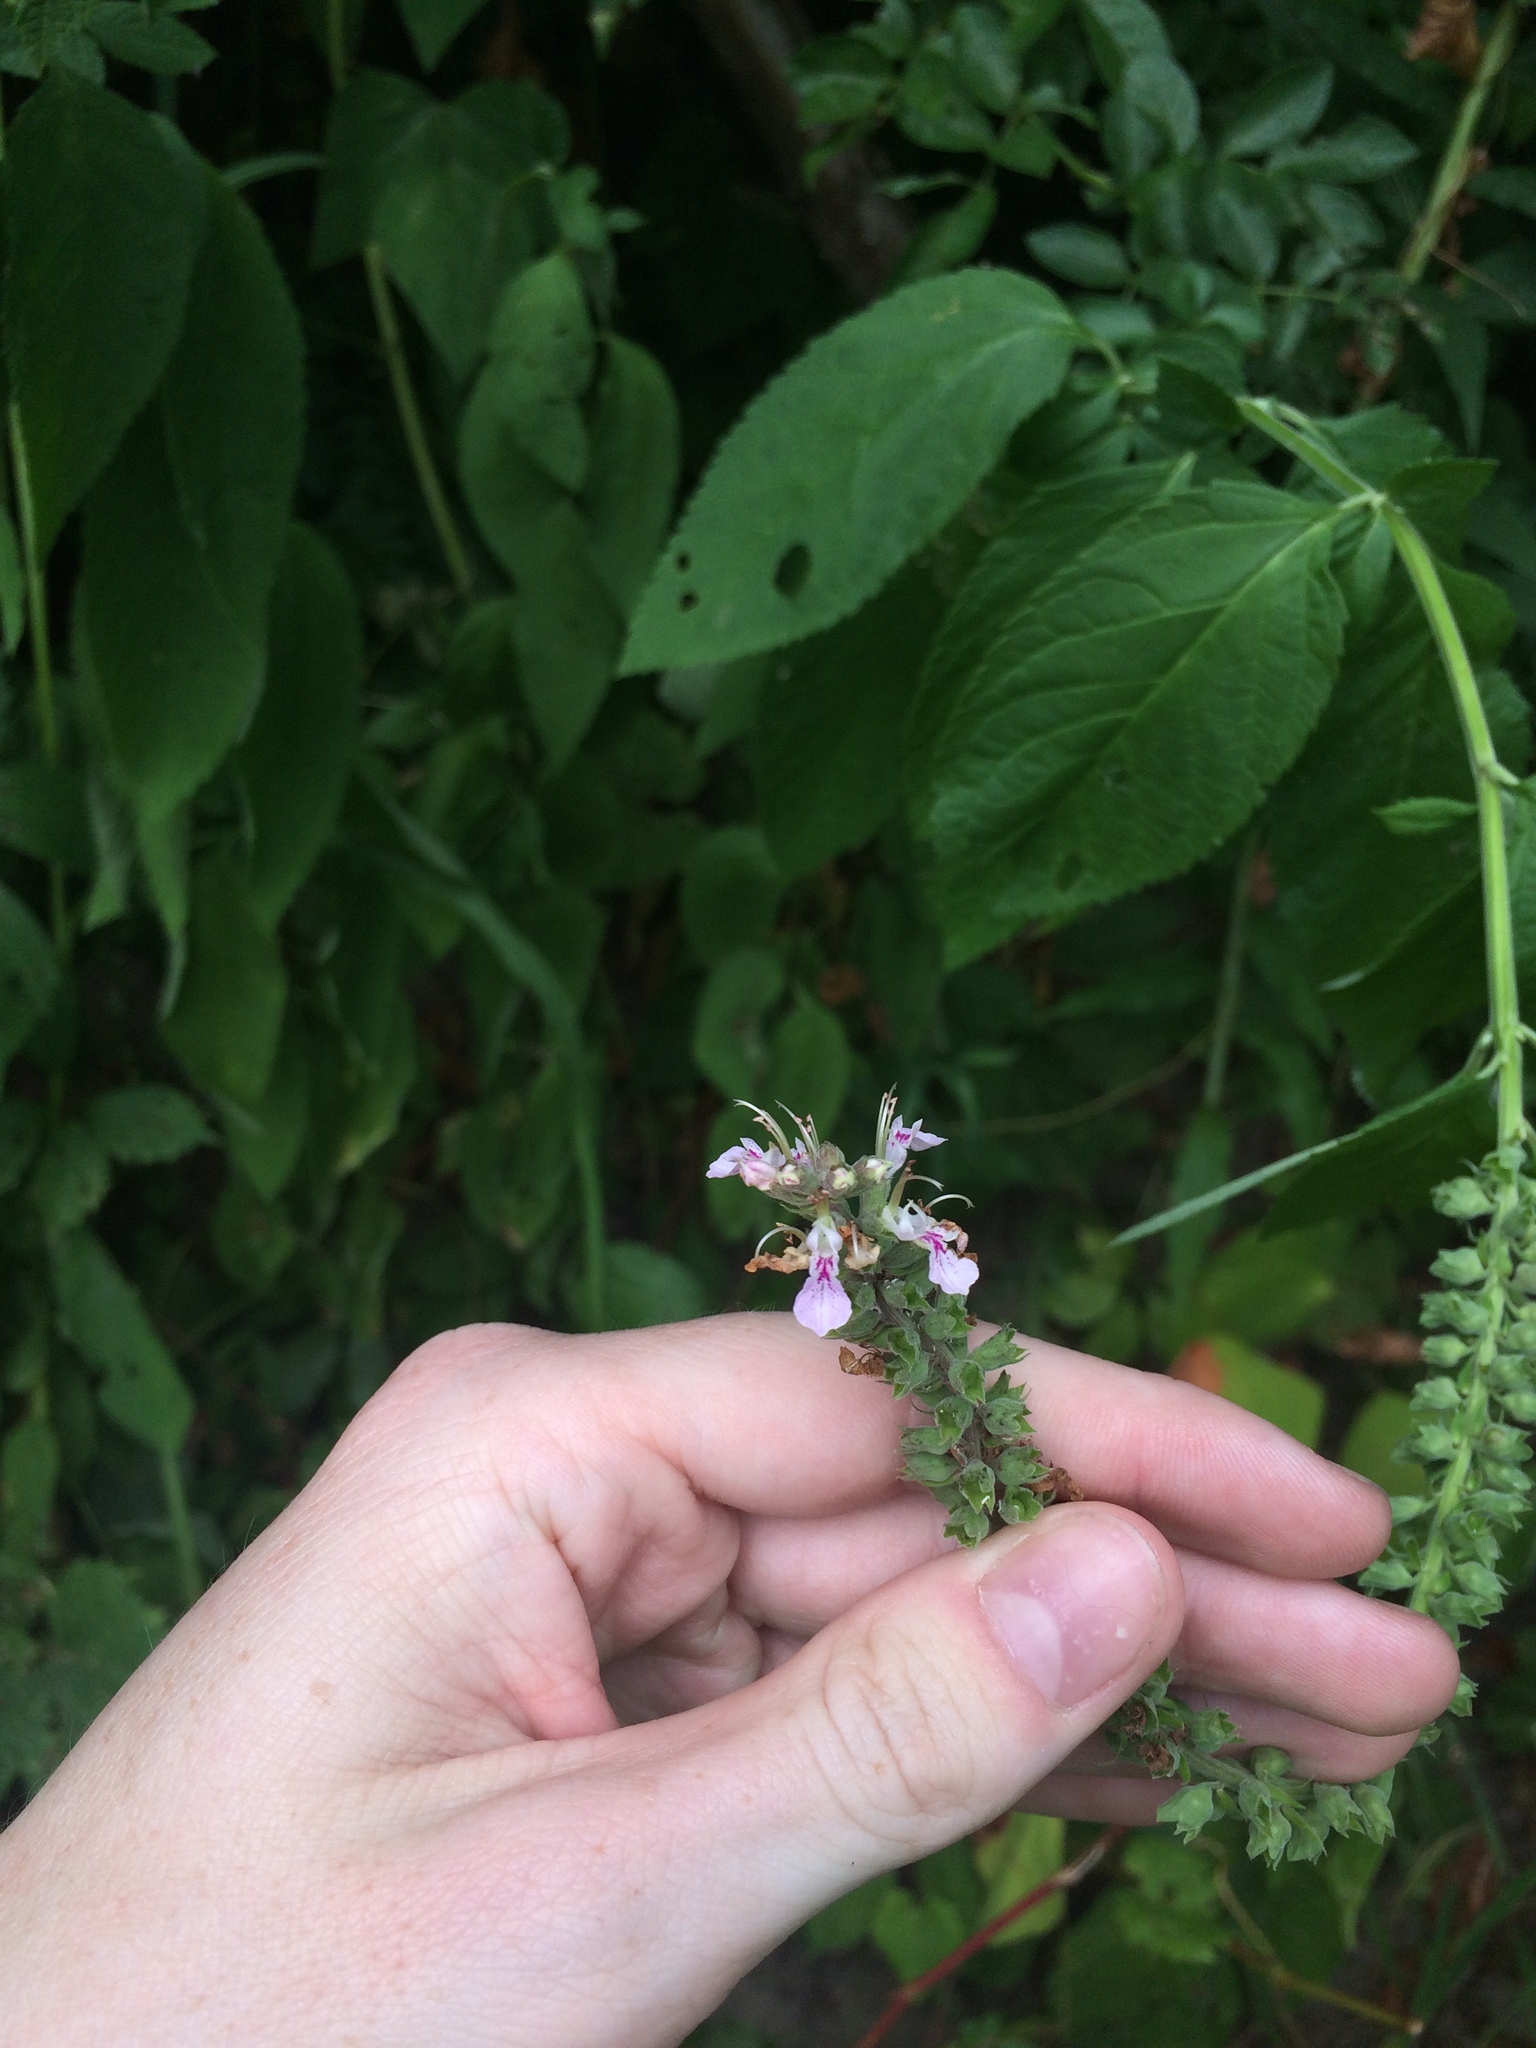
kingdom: Plantae
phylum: Tracheophyta
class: Magnoliopsida
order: Lamiales
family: Lamiaceae
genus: Teucrium
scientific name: Teucrium canadense
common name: American germander
